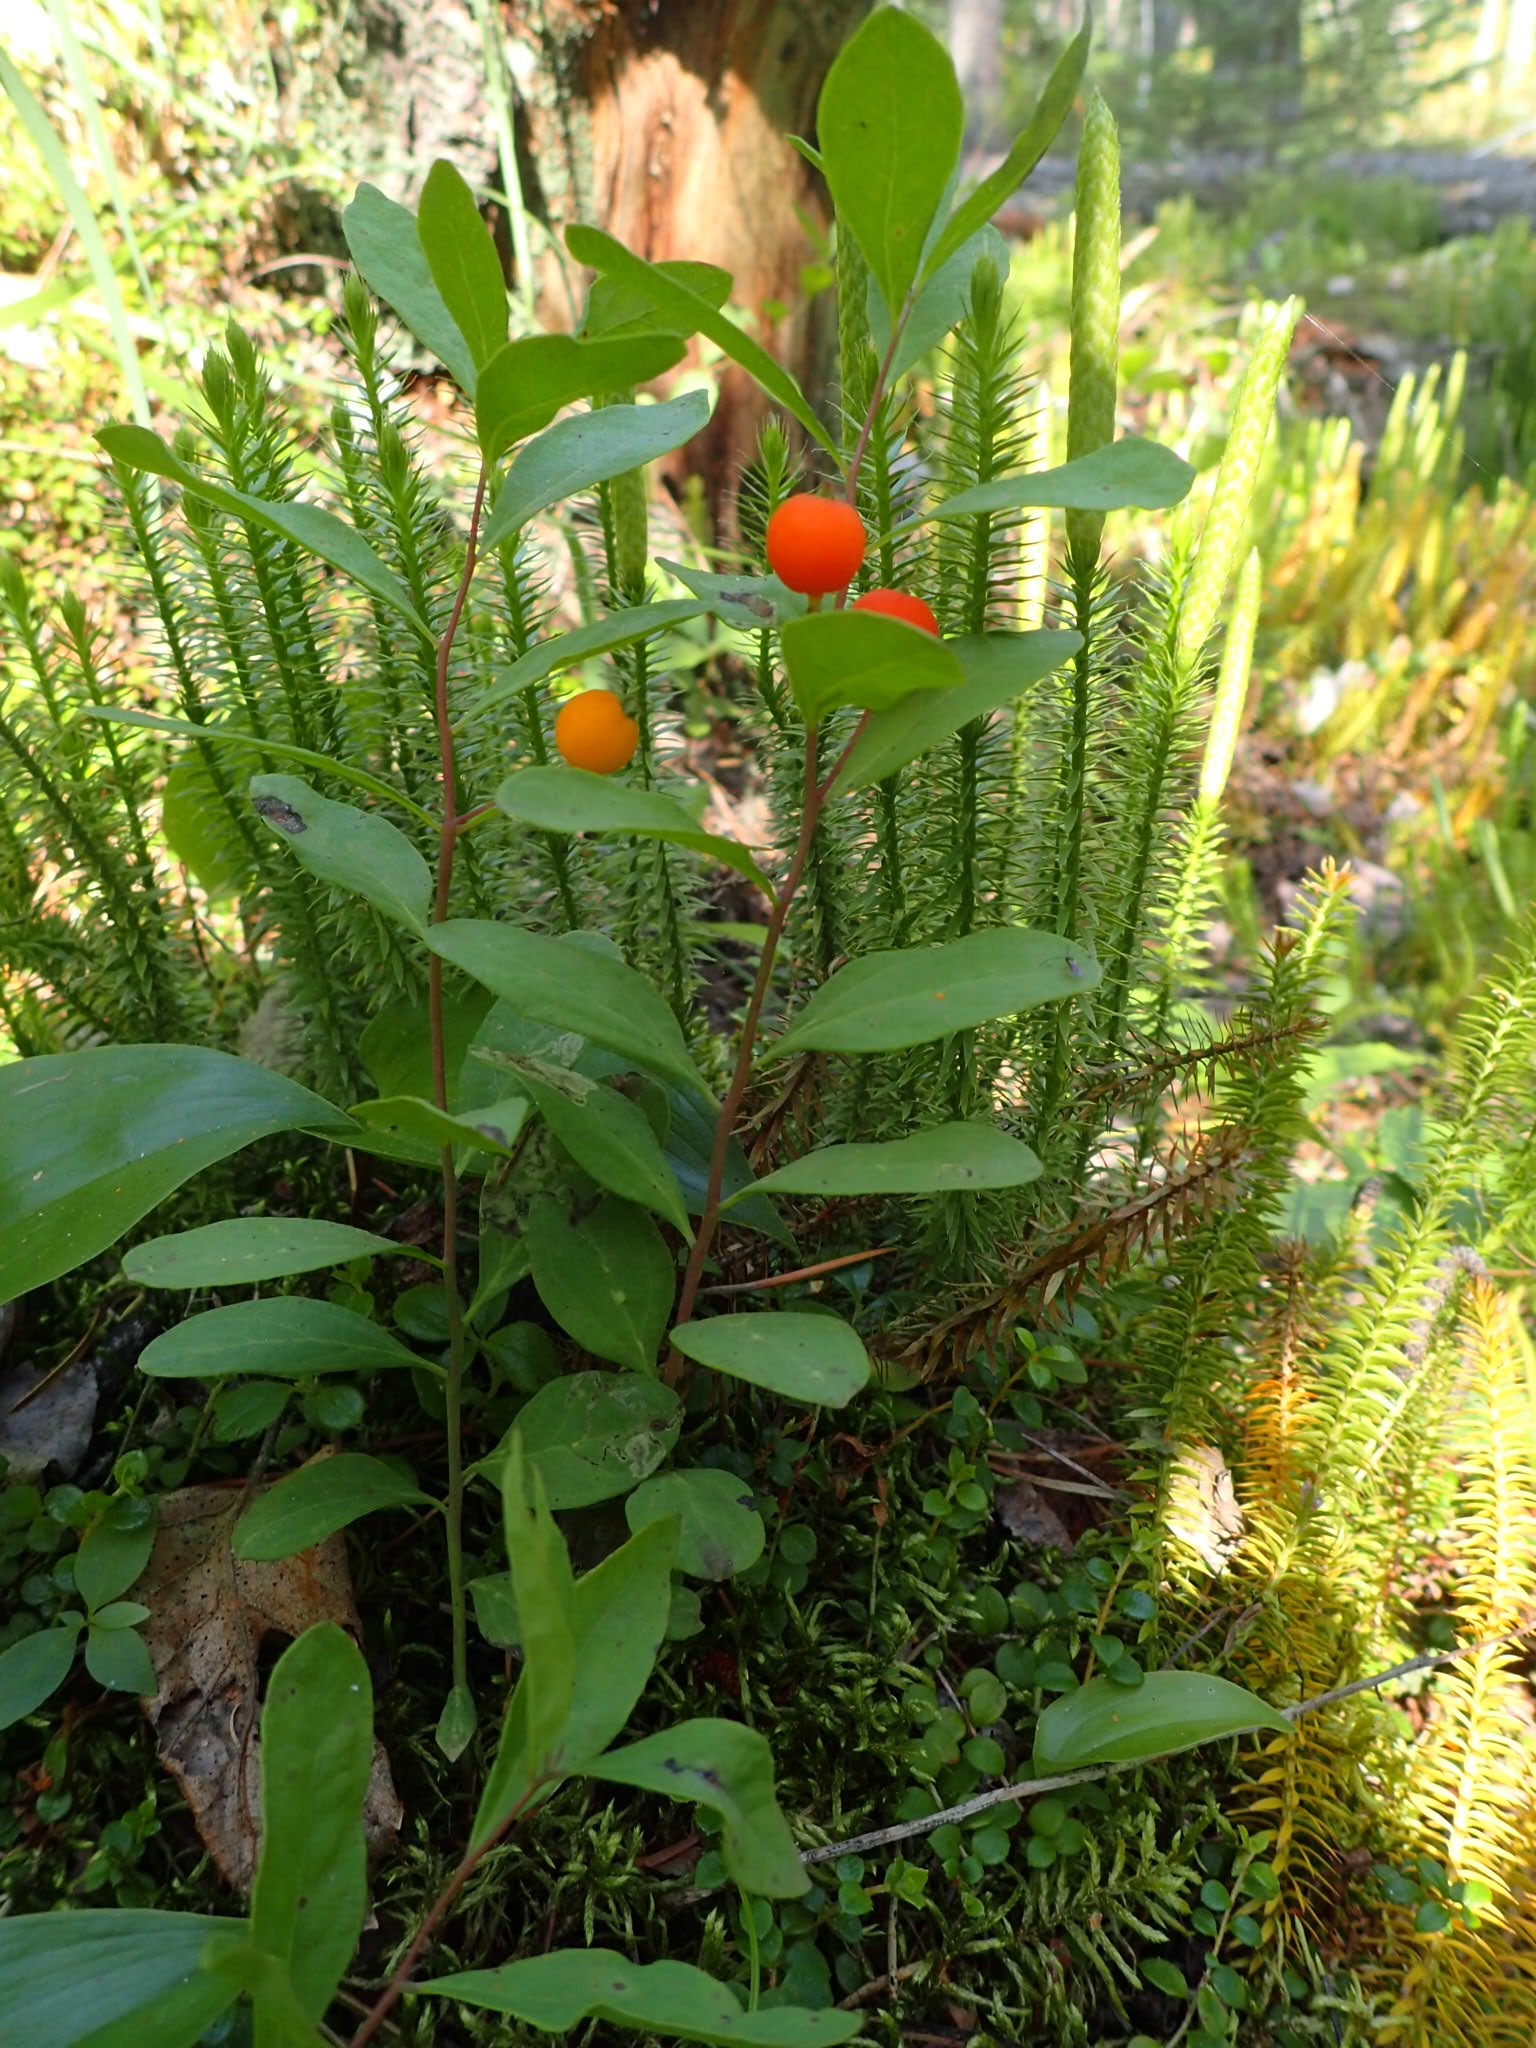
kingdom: Plantae
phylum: Tracheophyta
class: Magnoliopsida
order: Santalales
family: Comandraceae
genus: Geocaulon
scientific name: Geocaulon lividum
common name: Earthberry
